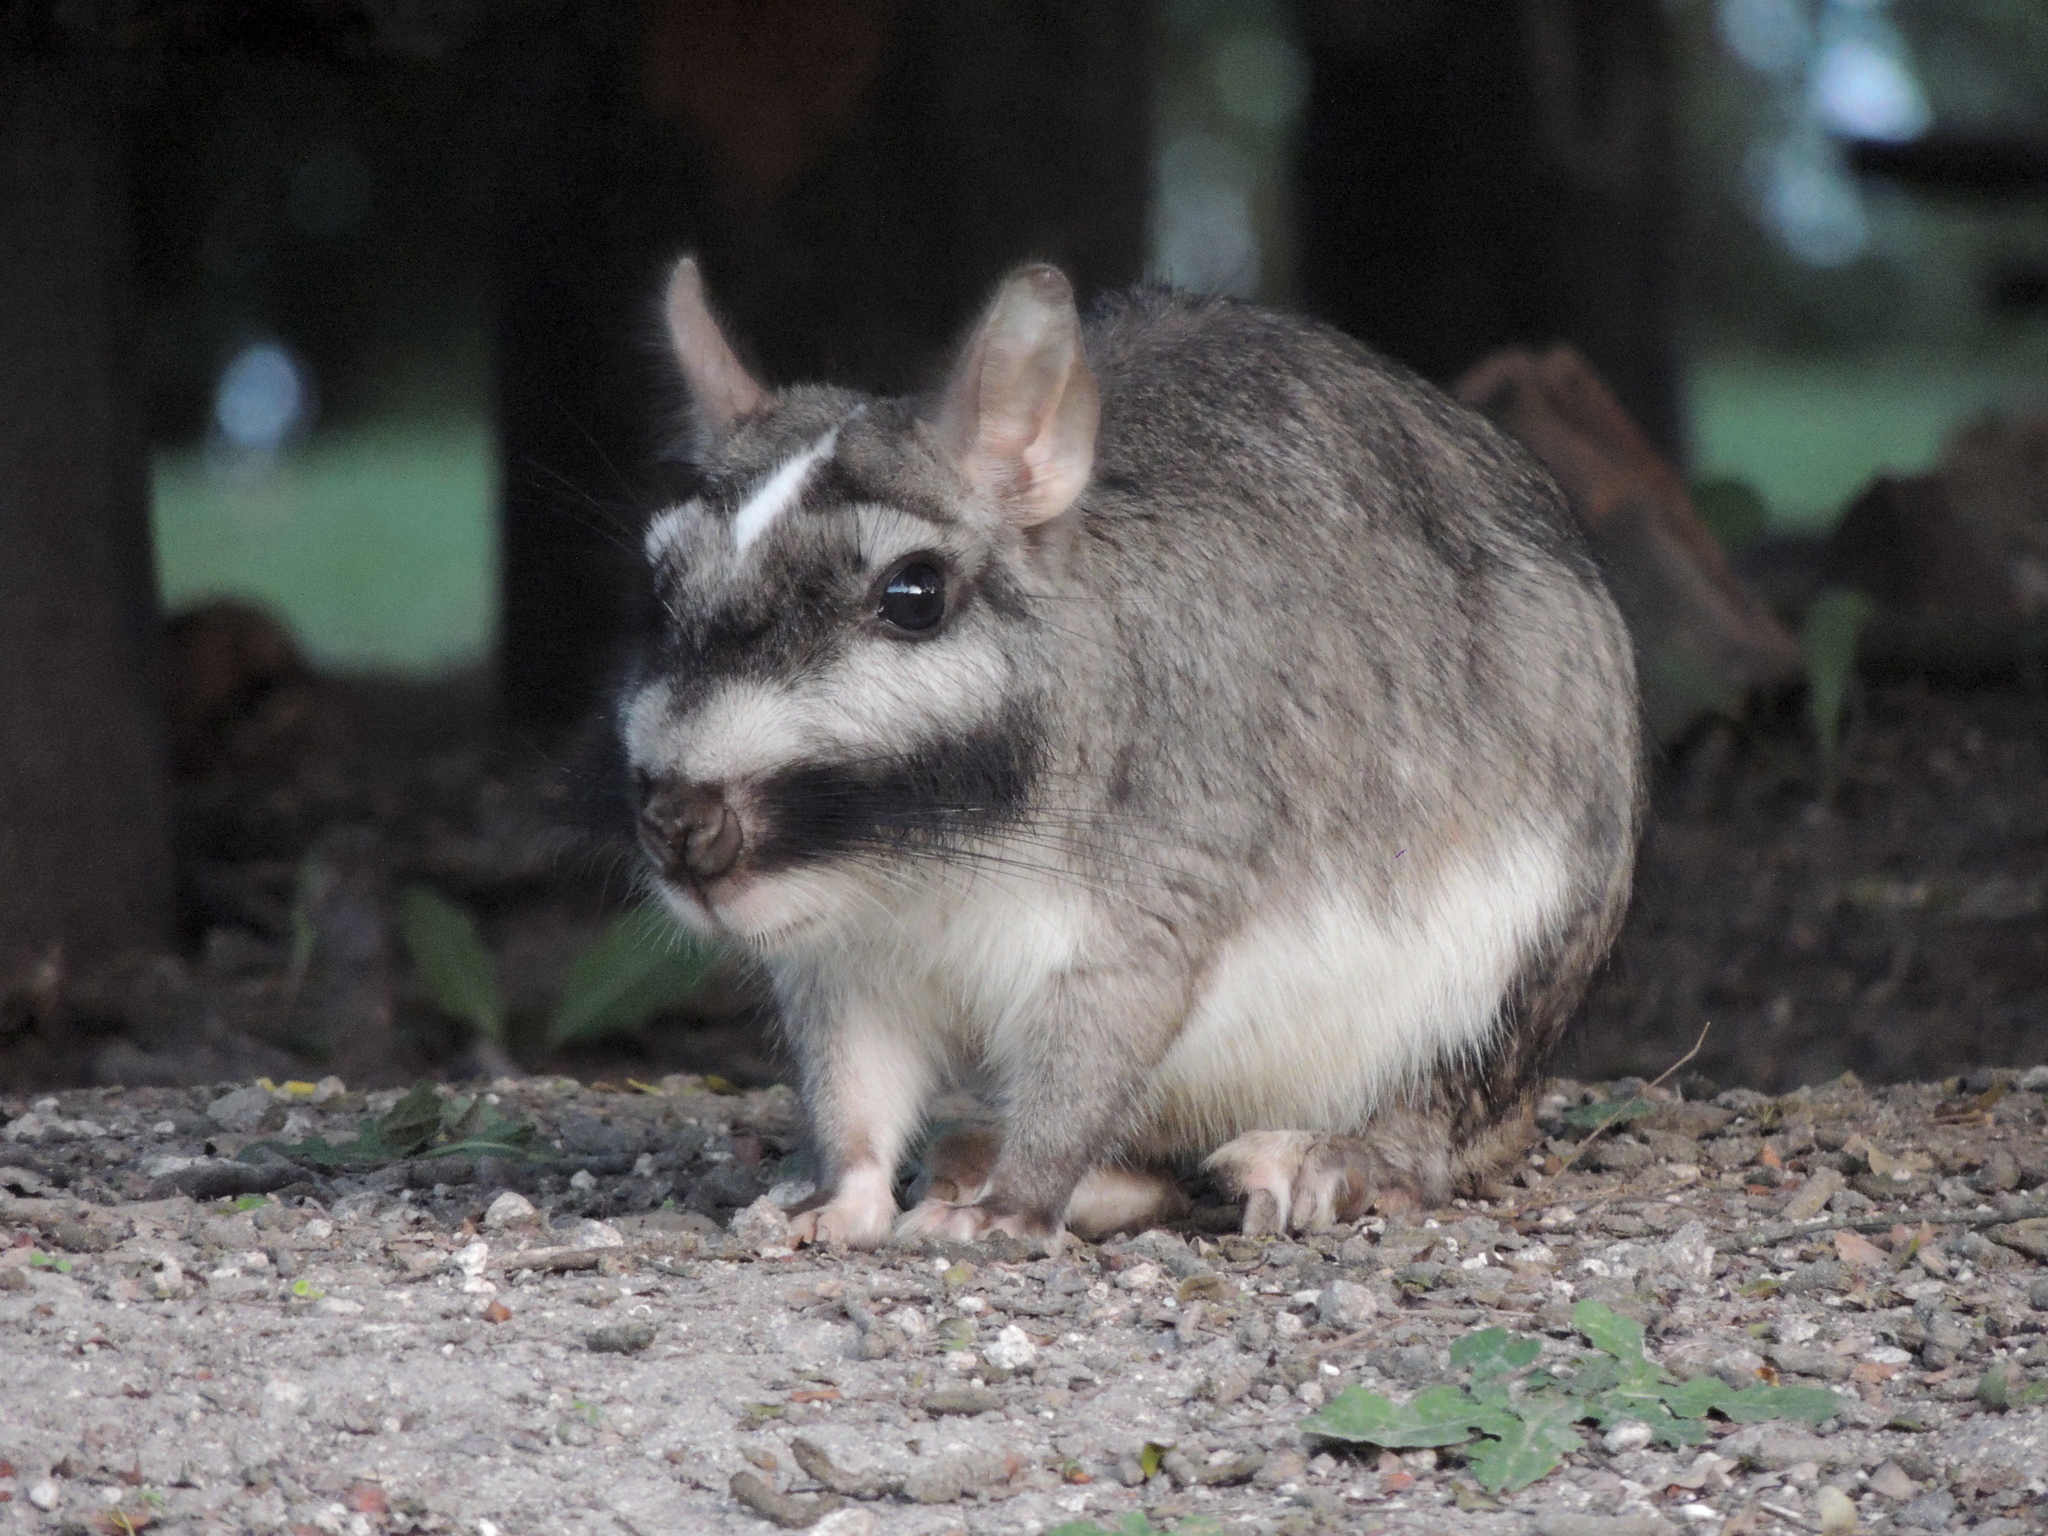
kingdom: Animalia
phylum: Chordata
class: Mammalia
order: Rodentia
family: Chinchillidae
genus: Lagostomus
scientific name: Lagostomus maximus
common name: Plains viscacha
